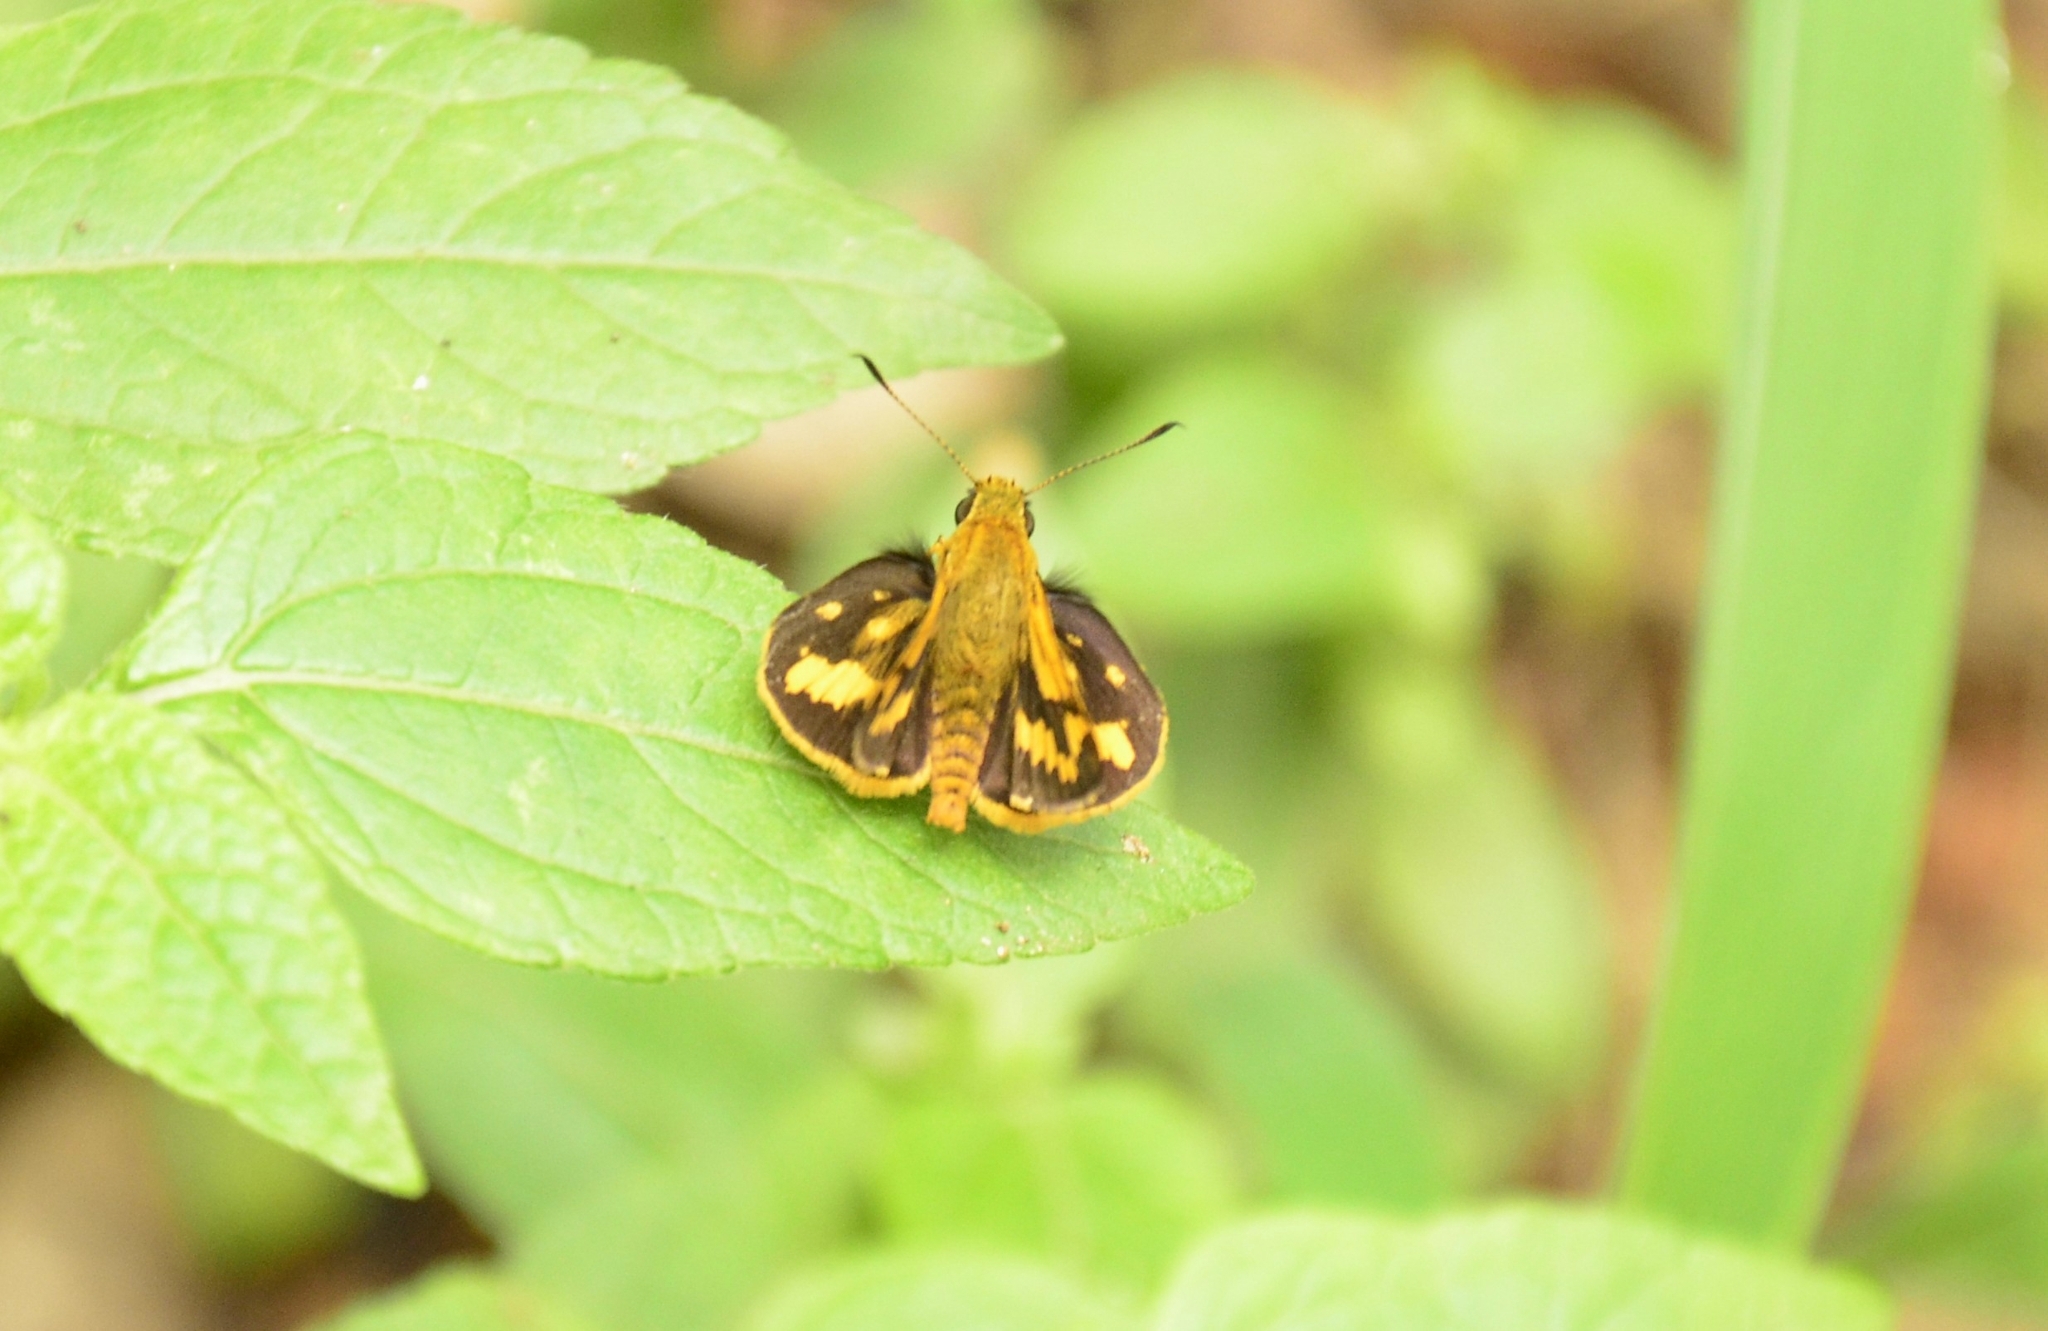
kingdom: Animalia
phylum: Arthropoda
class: Insecta
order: Lepidoptera
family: Hesperiidae
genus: Potanthus
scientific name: Potanthus pava
